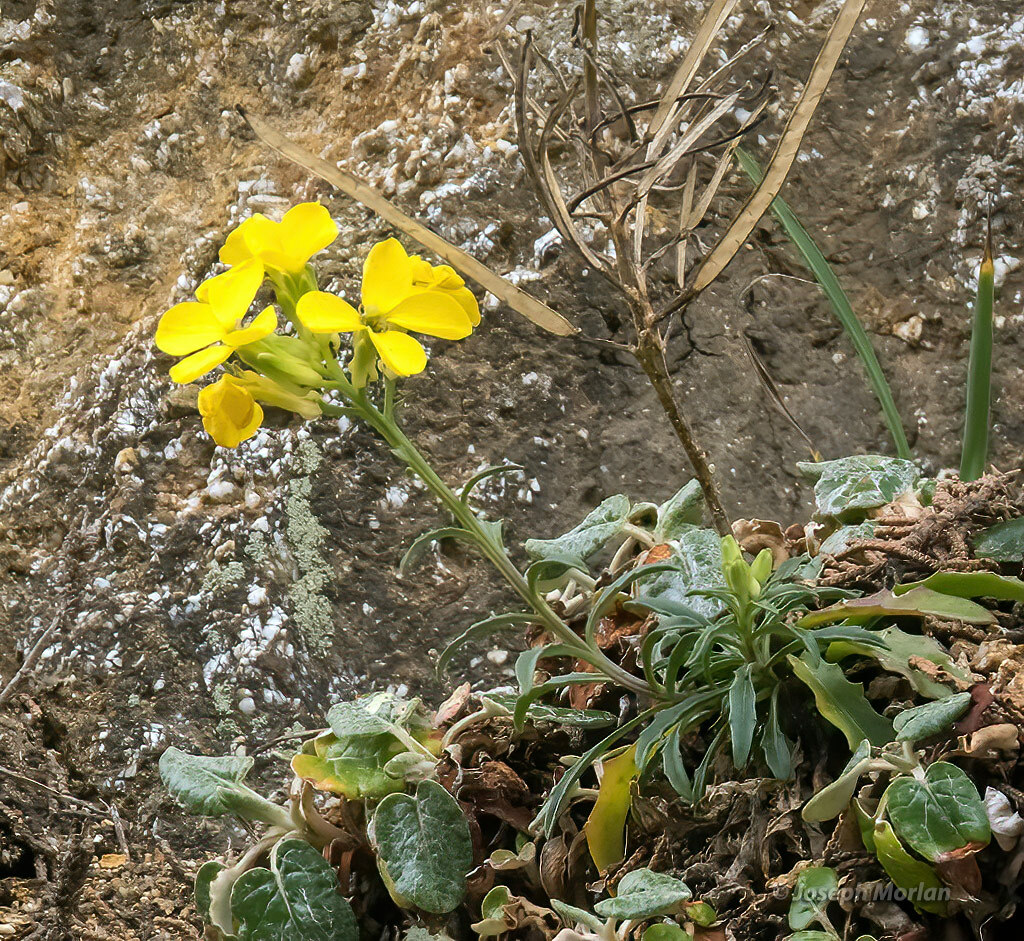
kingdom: Plantae
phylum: Tracheophyta
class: Magnoliopsida
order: Brassicales
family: Brassicaceae
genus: Erysimum
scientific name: Erysimum franciscanum
